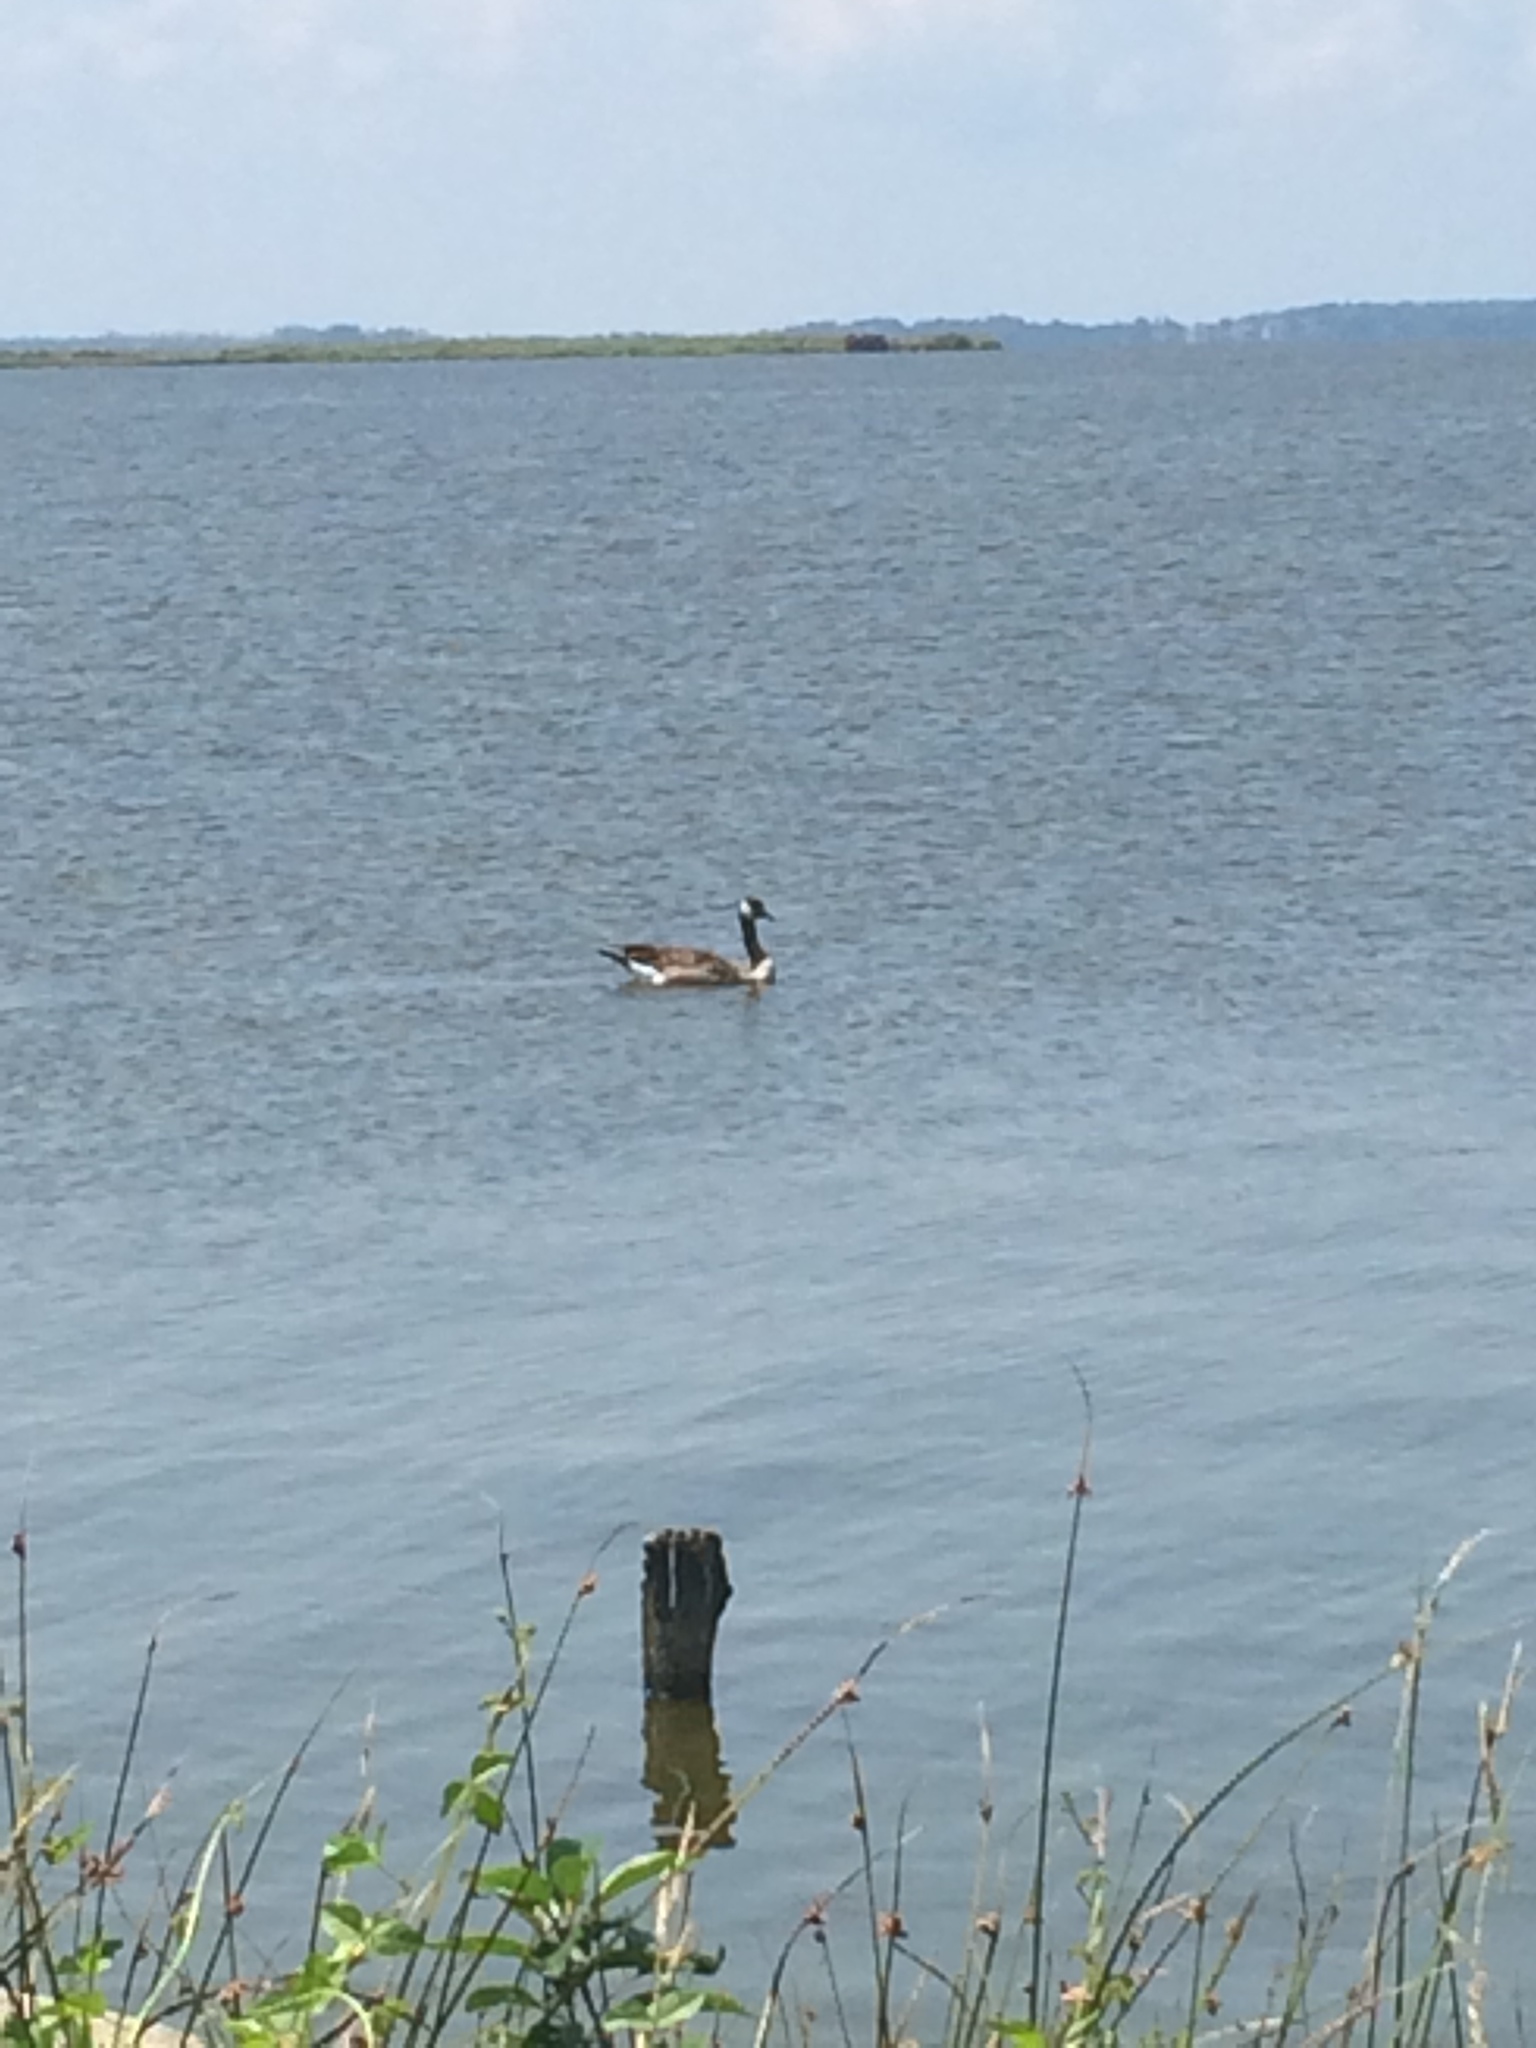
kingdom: Animalia
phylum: Chordata
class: Aves
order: Anseriformes
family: Anatidae
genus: Branta
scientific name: Branta canadensis
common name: Canada goose
